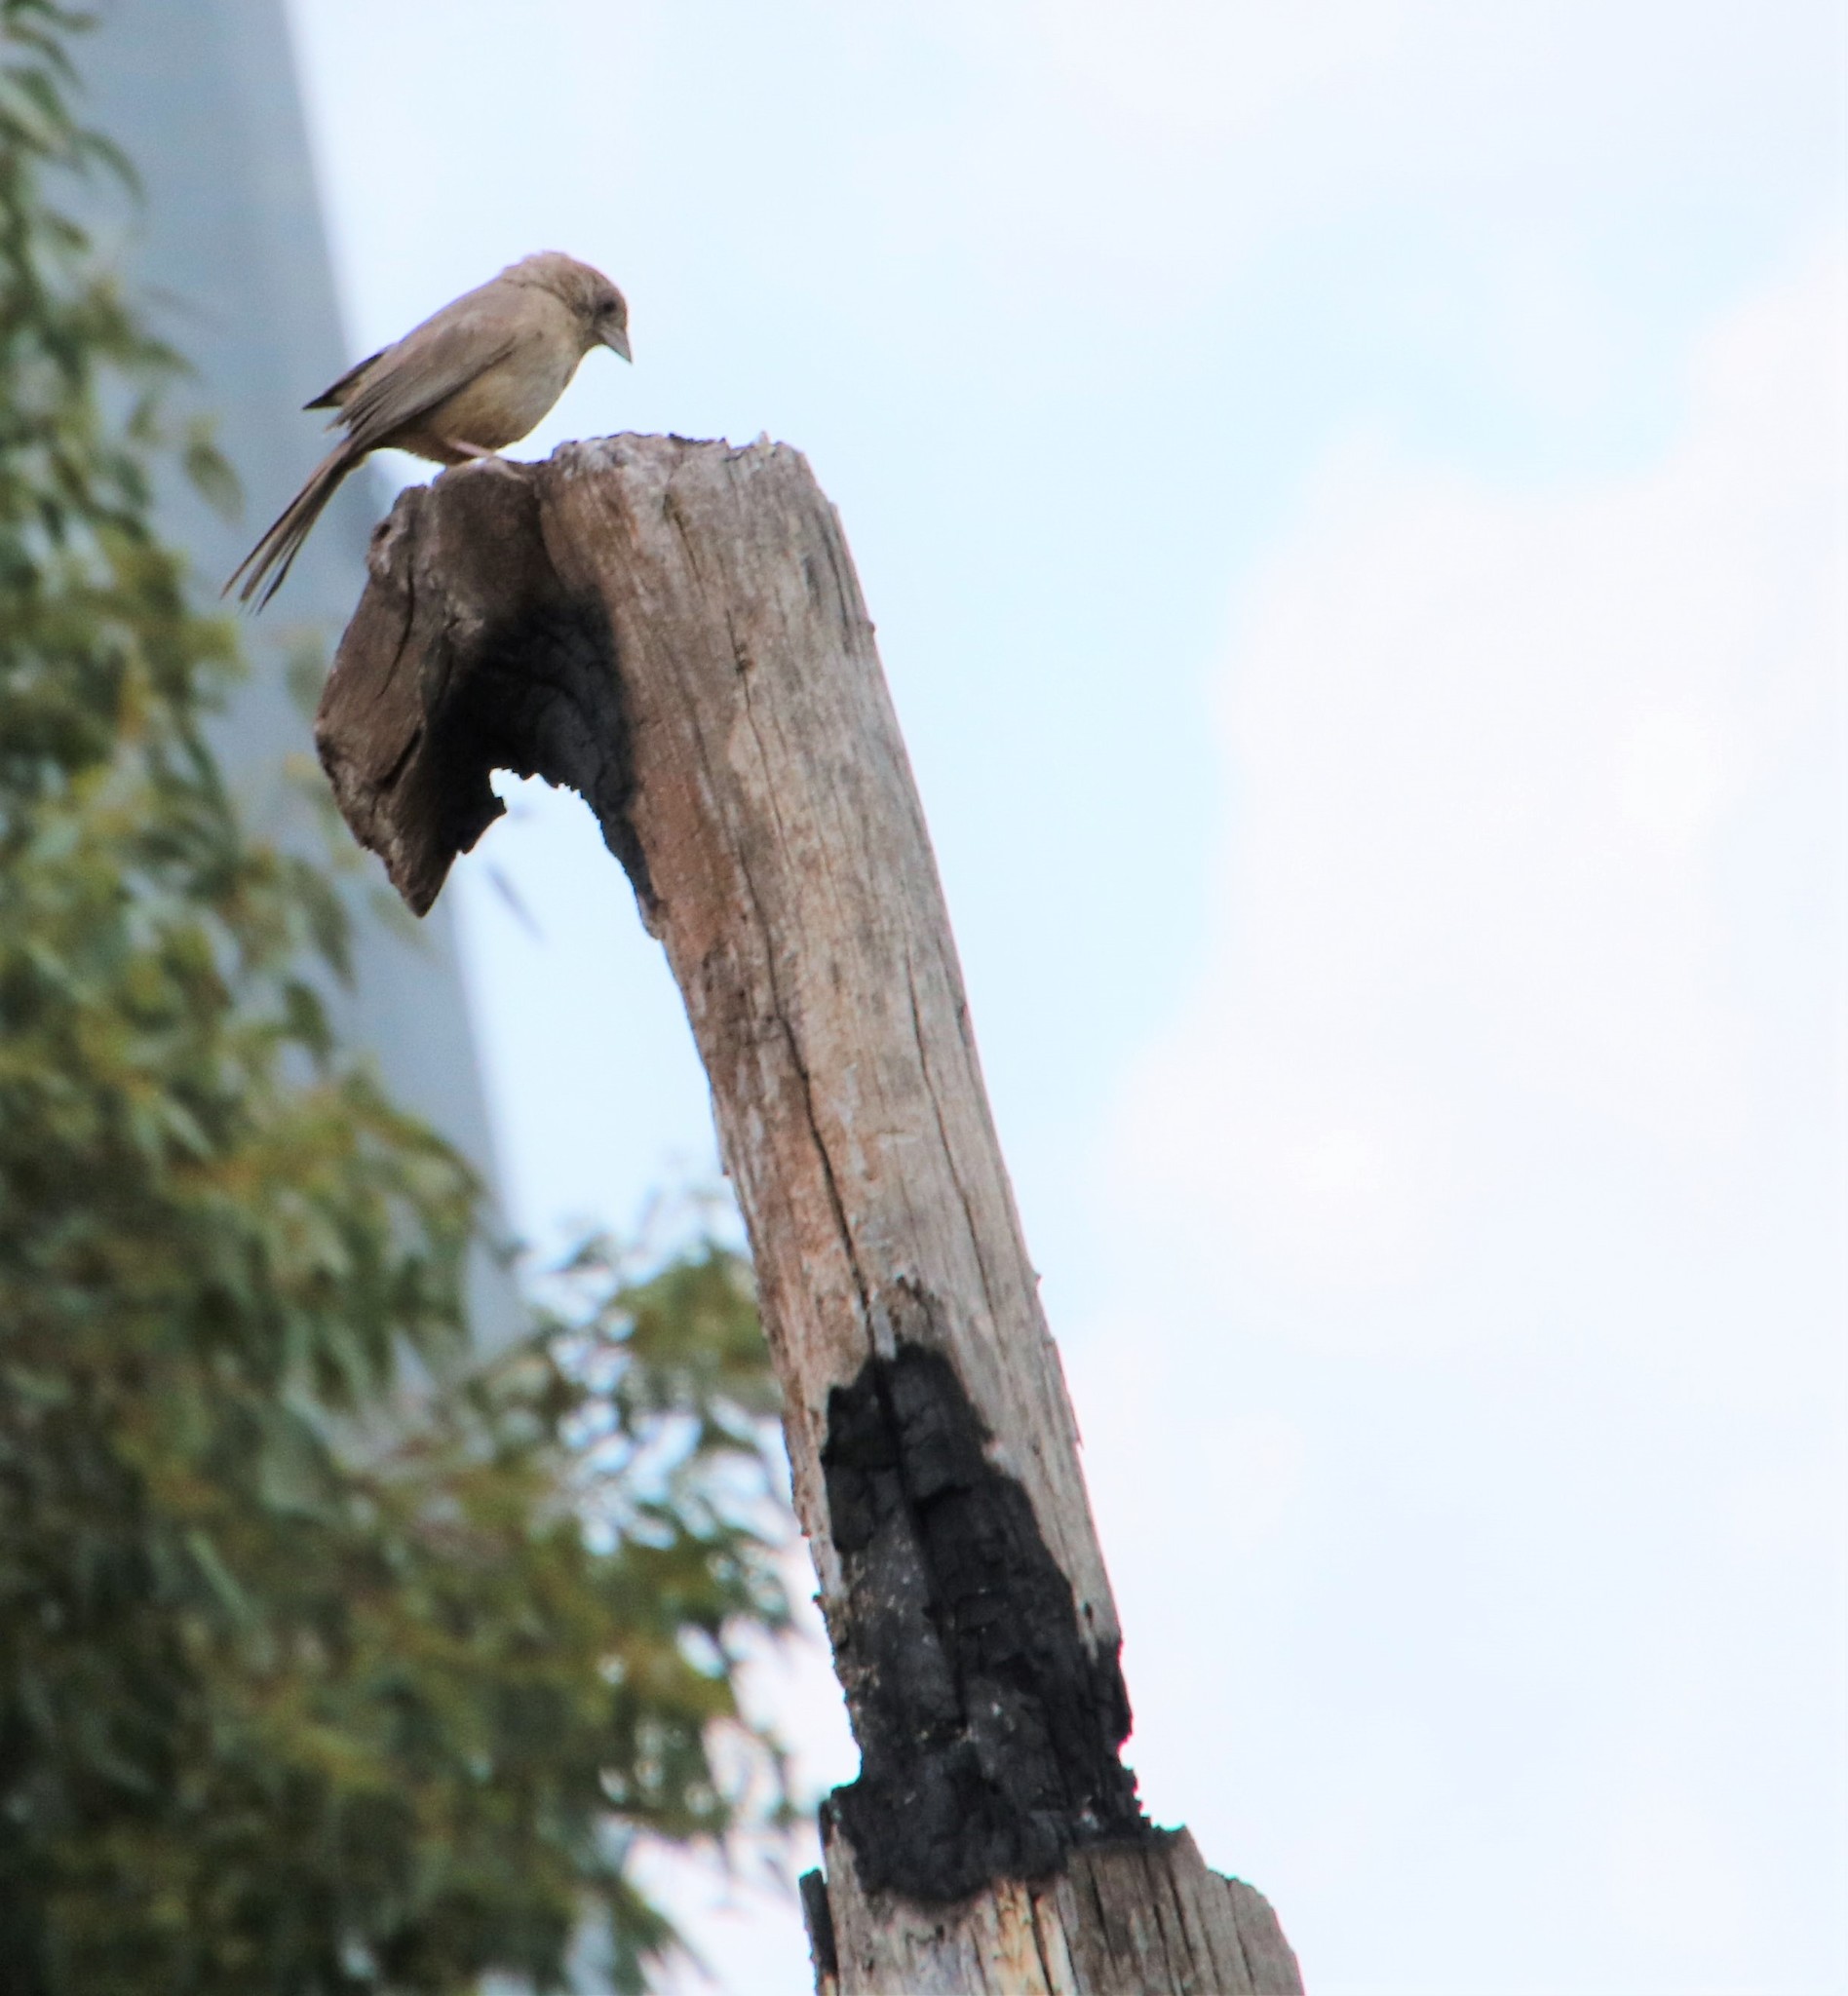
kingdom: Animalia
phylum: Chordata
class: Aves
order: Passeriformes
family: Passerellidae
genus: Melozone
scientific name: Melozone fusca
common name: Canyon towhee
